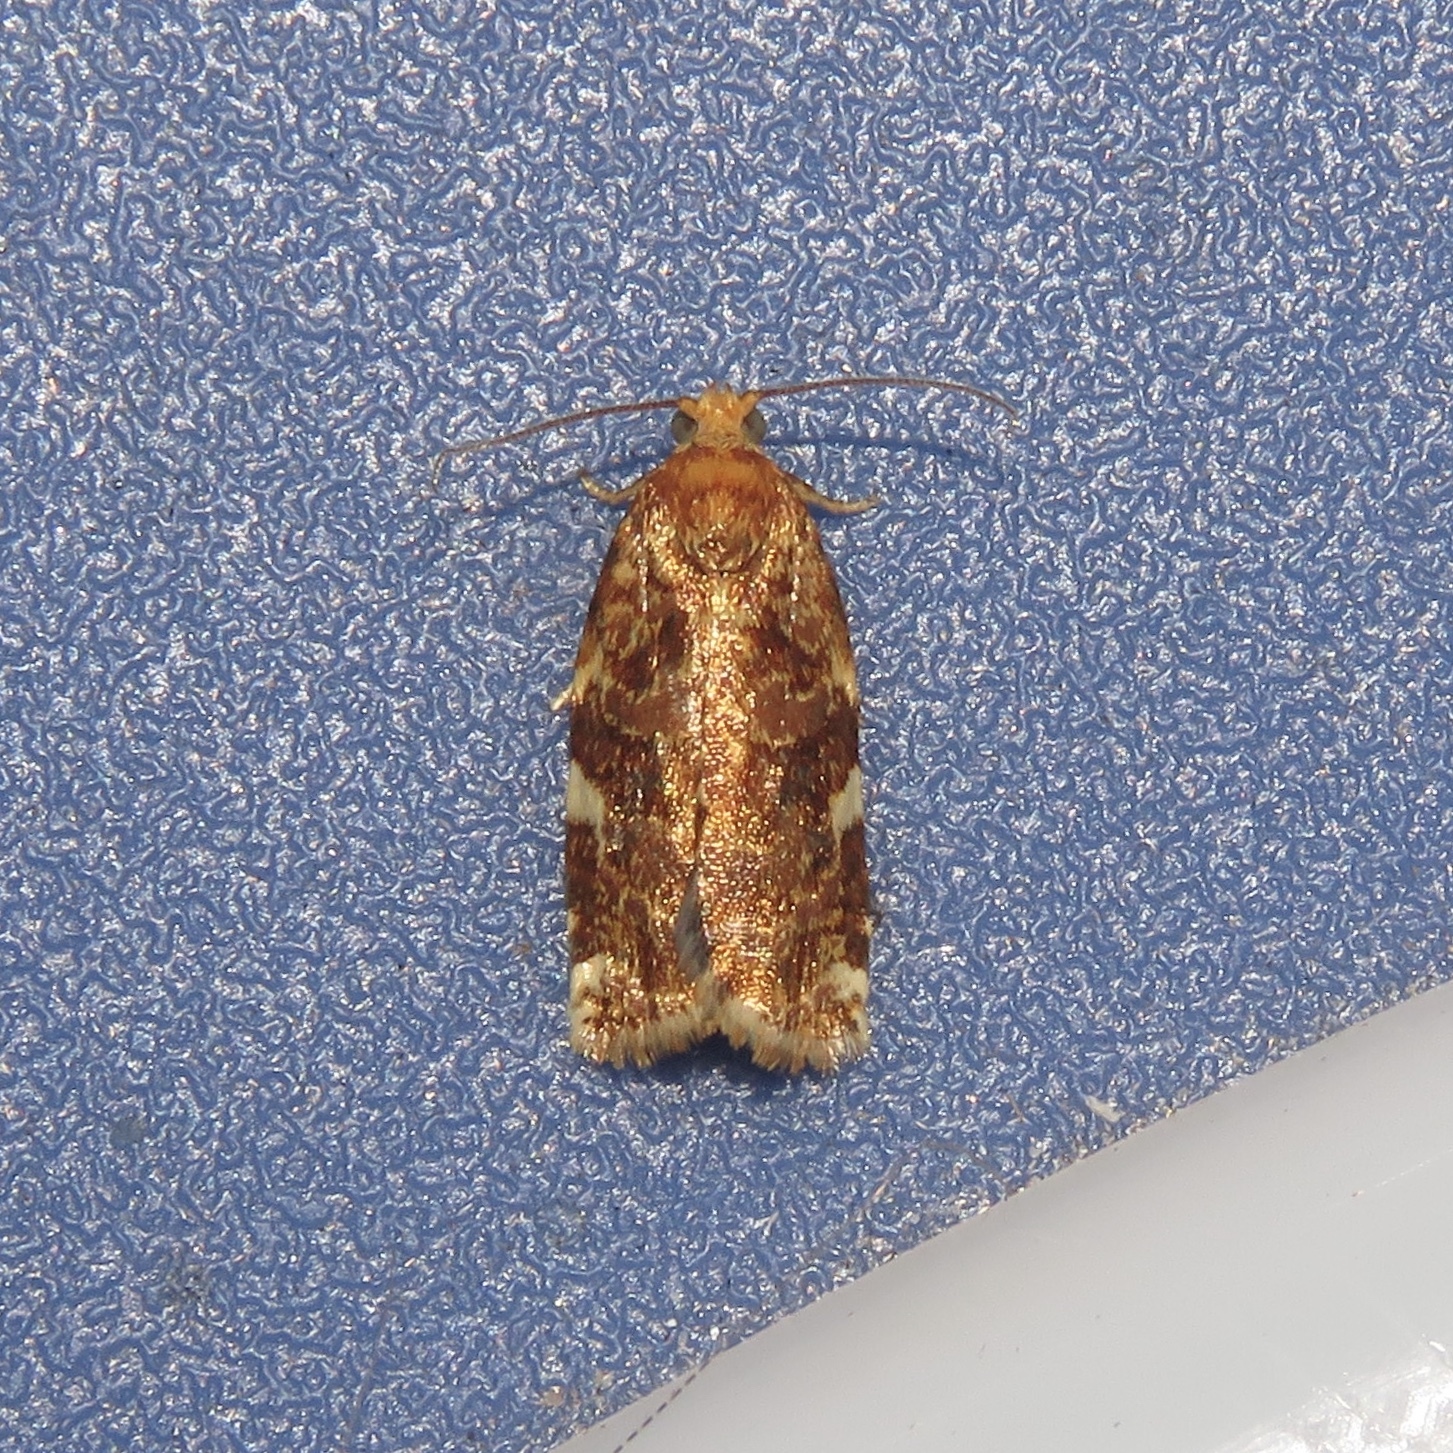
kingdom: Animalia
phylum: Arthropoda
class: Insecta
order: Lepidoptera
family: Tortricidae
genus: Archips
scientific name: Archips argyrospila
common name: Fruit-tree leafroller moth
